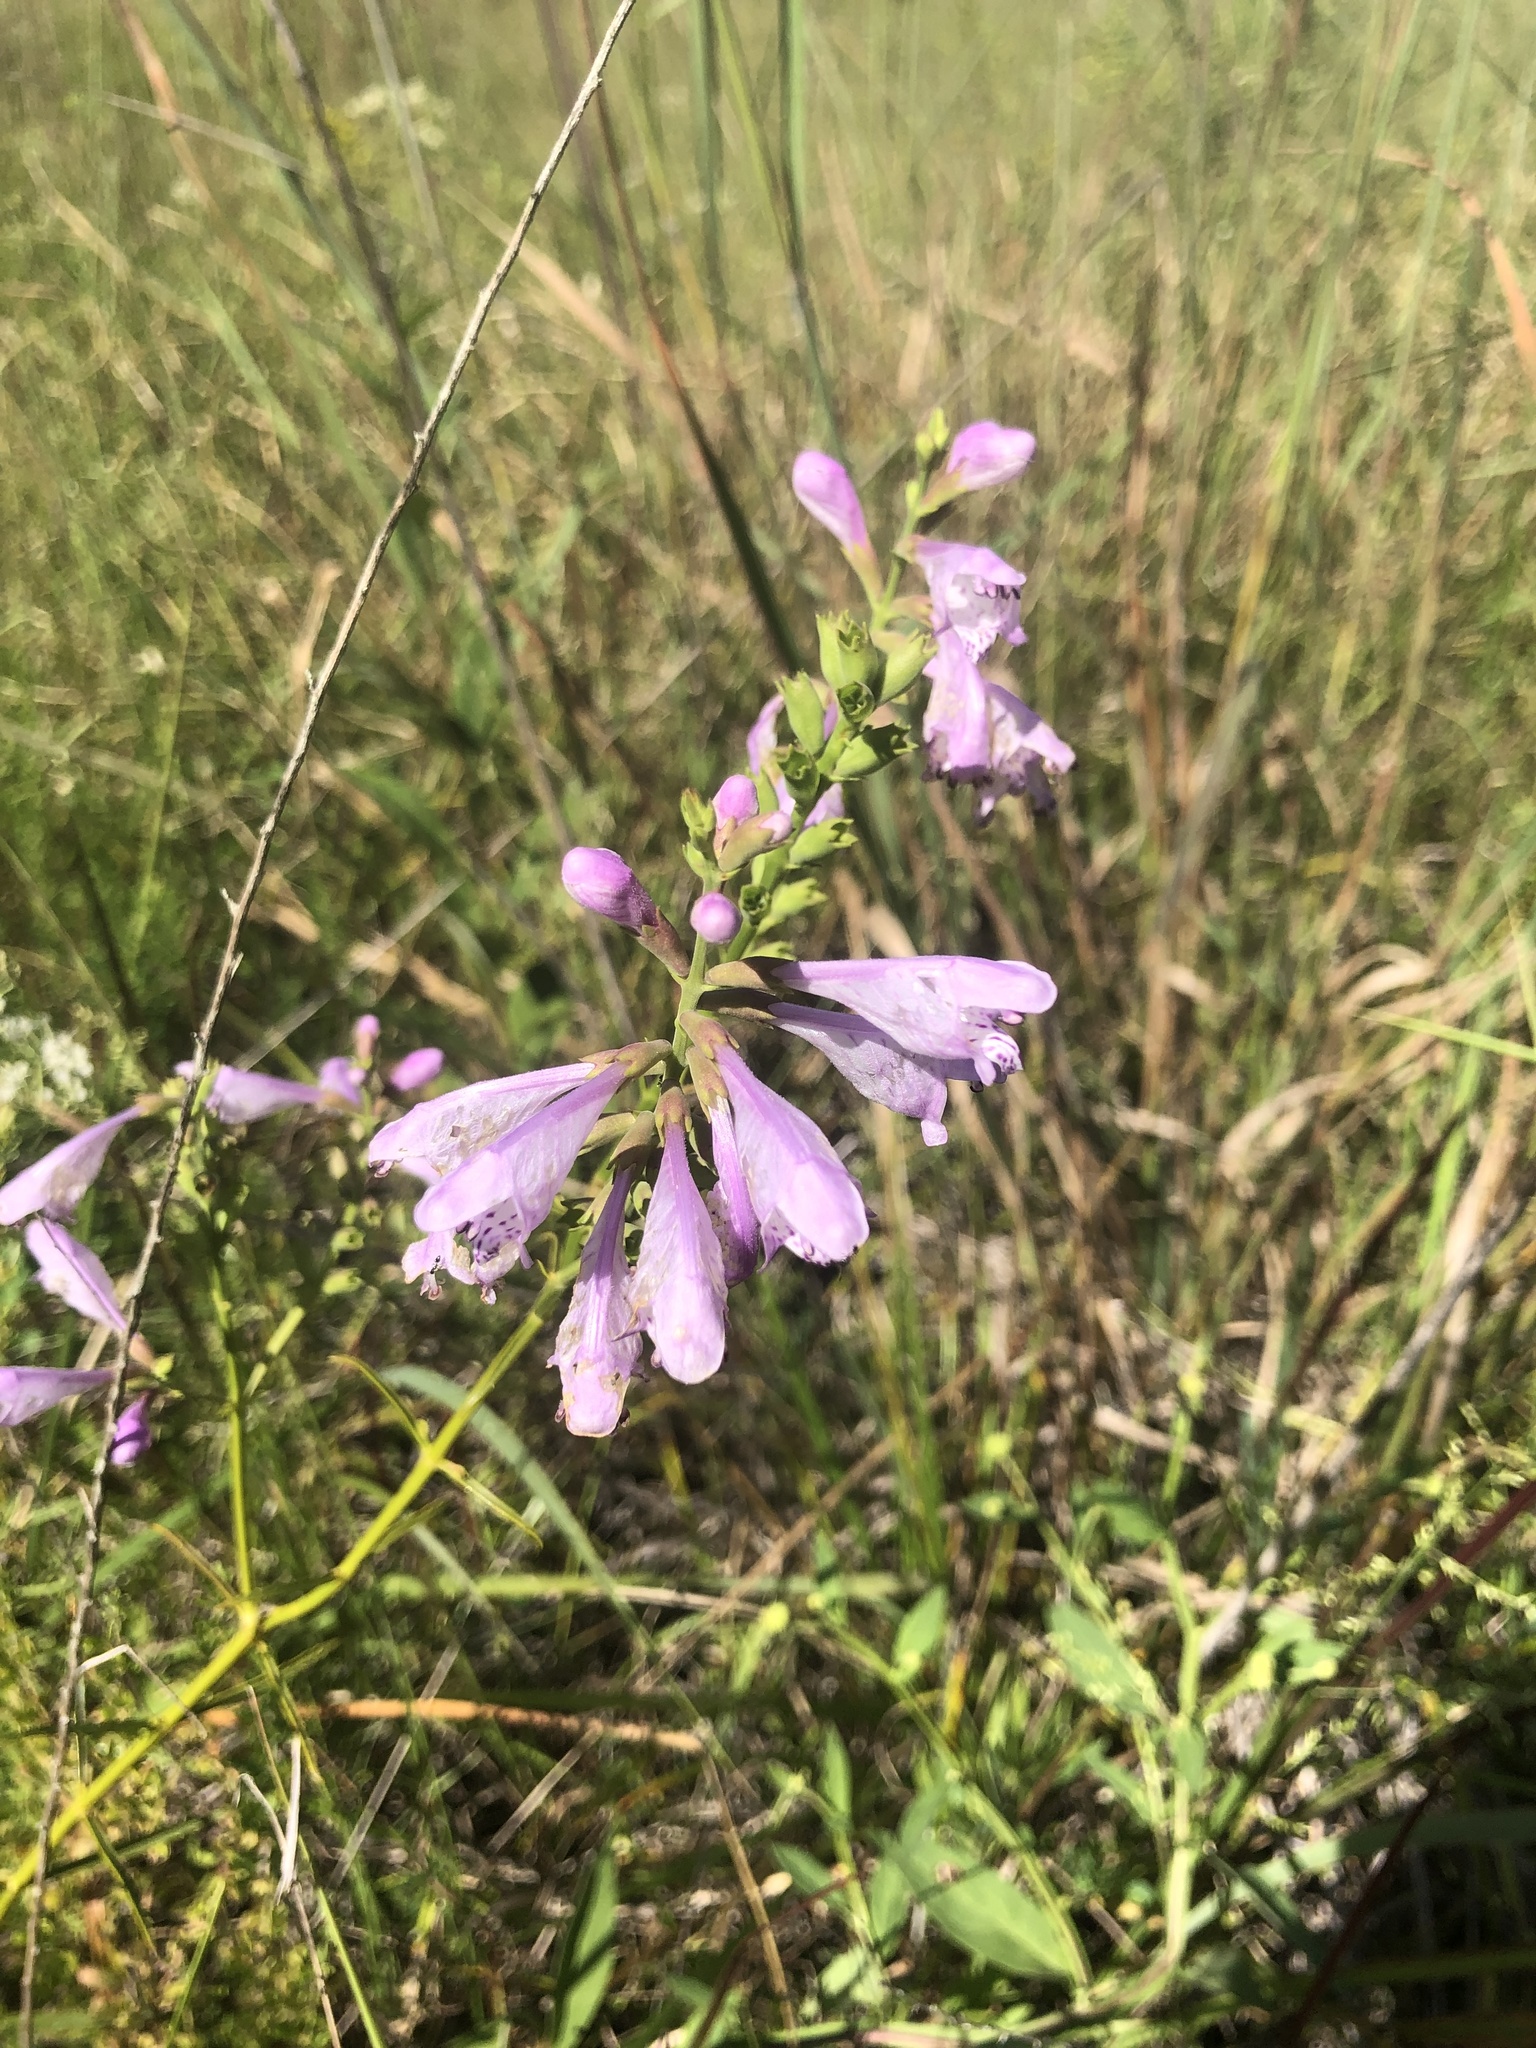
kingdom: Plantae
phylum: Tracheophyta
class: Magnoliopsida
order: Lamiales
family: Lamiaceae
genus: Physostegia
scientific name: Physostegia virginiana
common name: Obedient-plant
